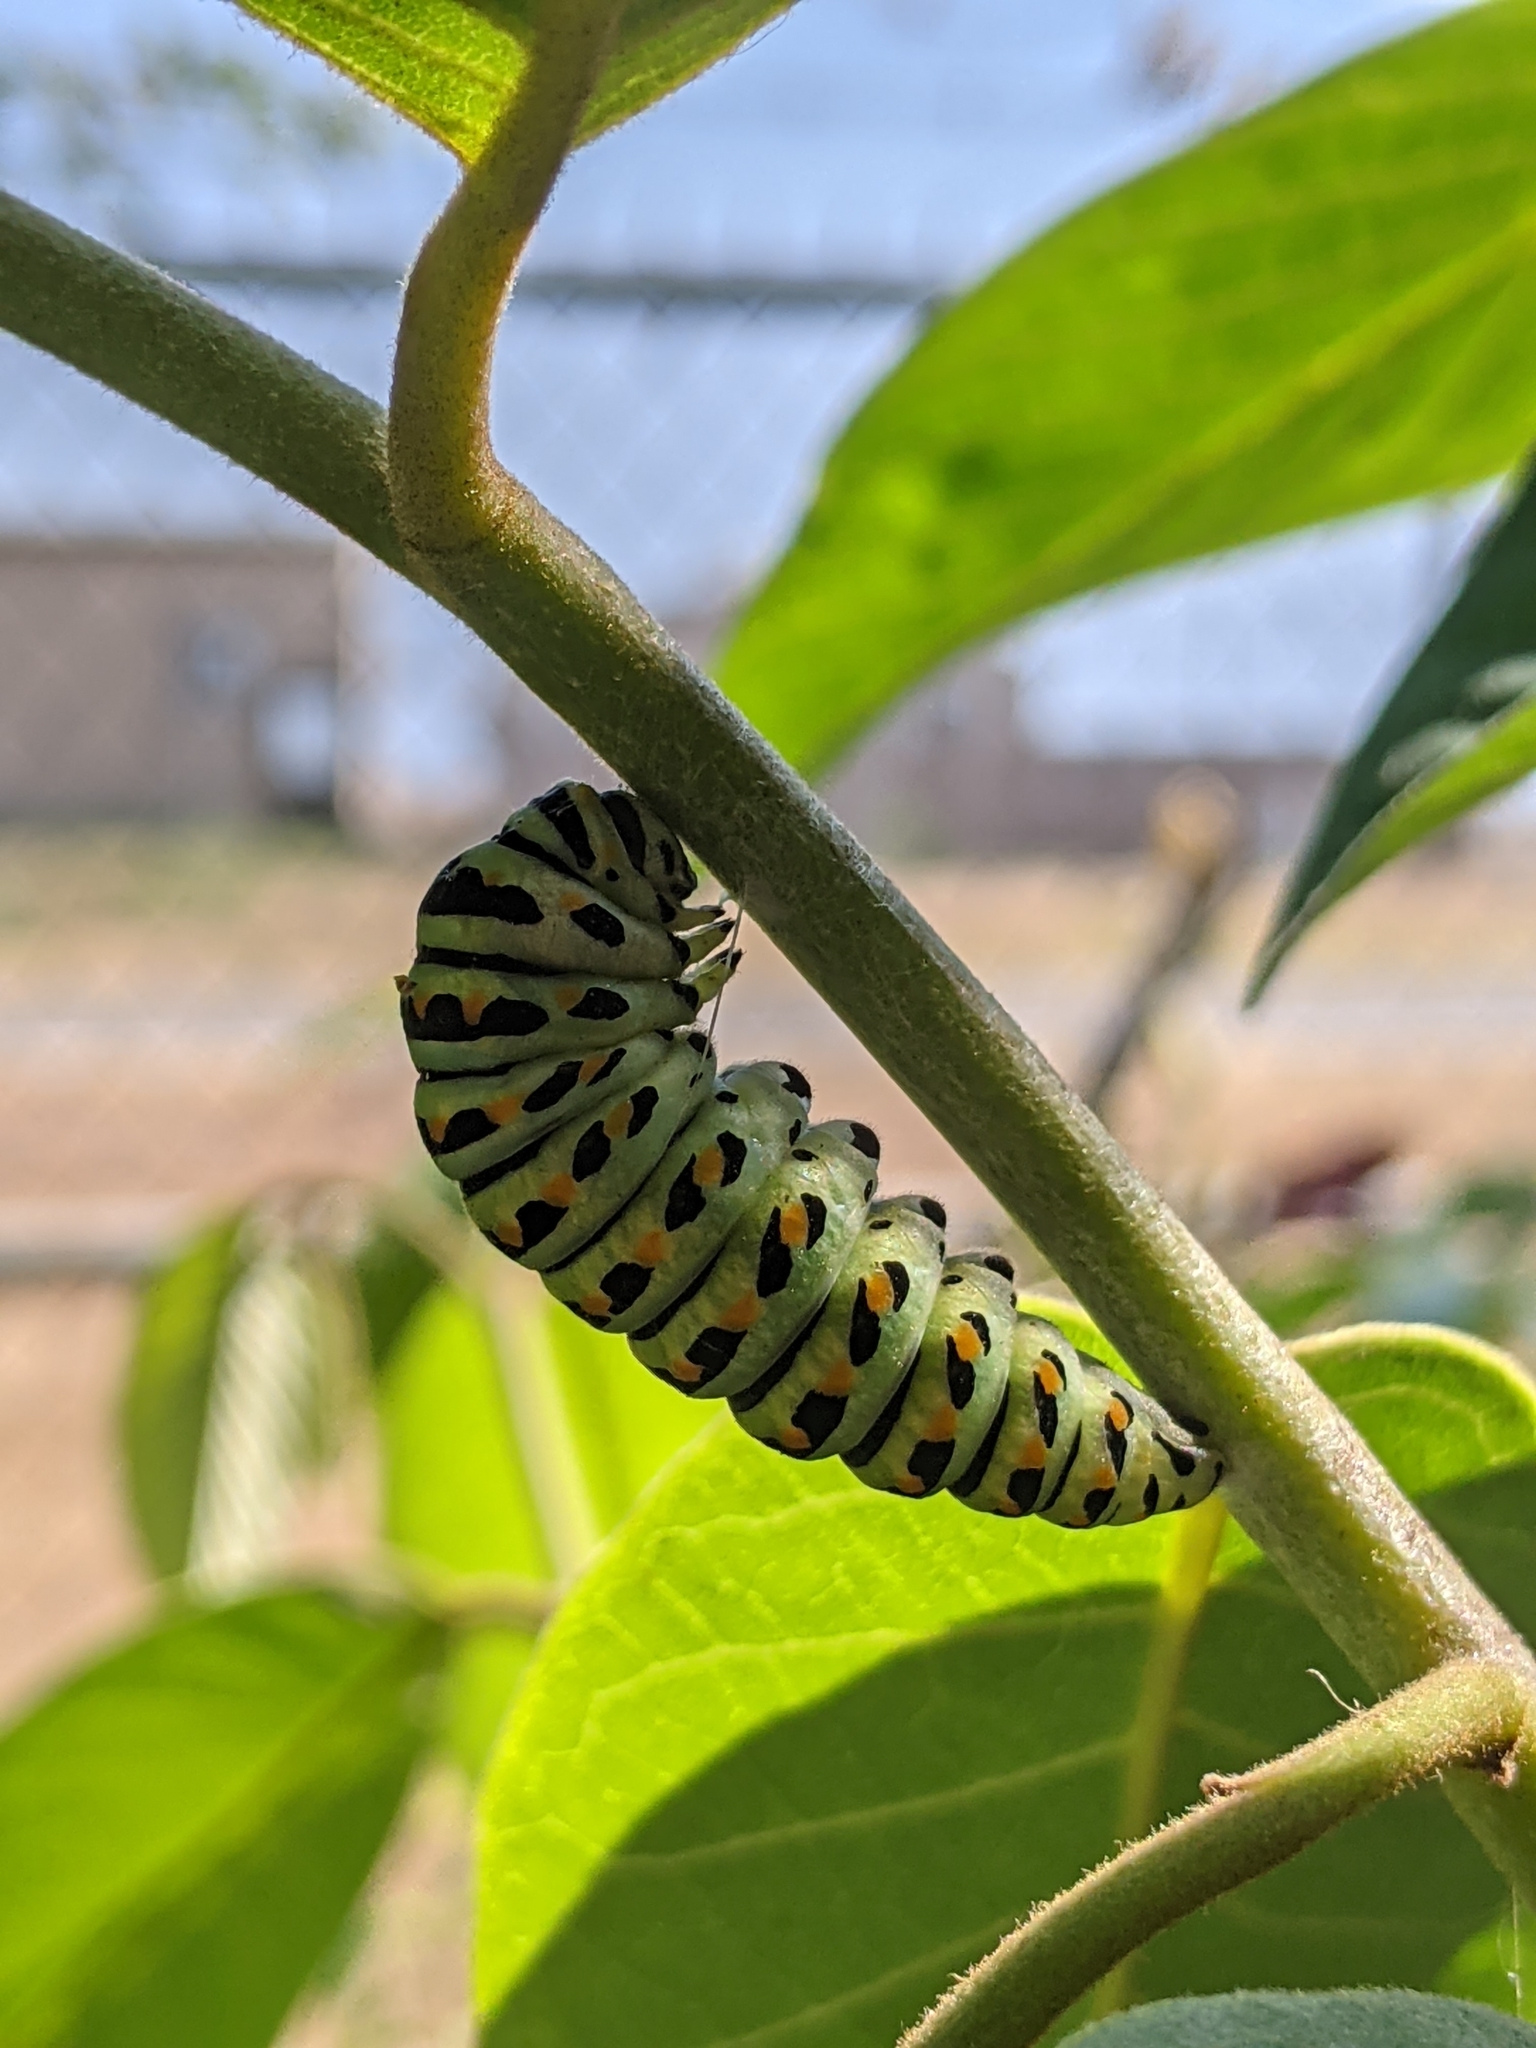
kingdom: Animalia
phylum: Arthropoda
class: Insecta
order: Lepidoptera
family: Papilionidae
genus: Papilio
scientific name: Papilio zelicaon
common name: Anise swallowtail
